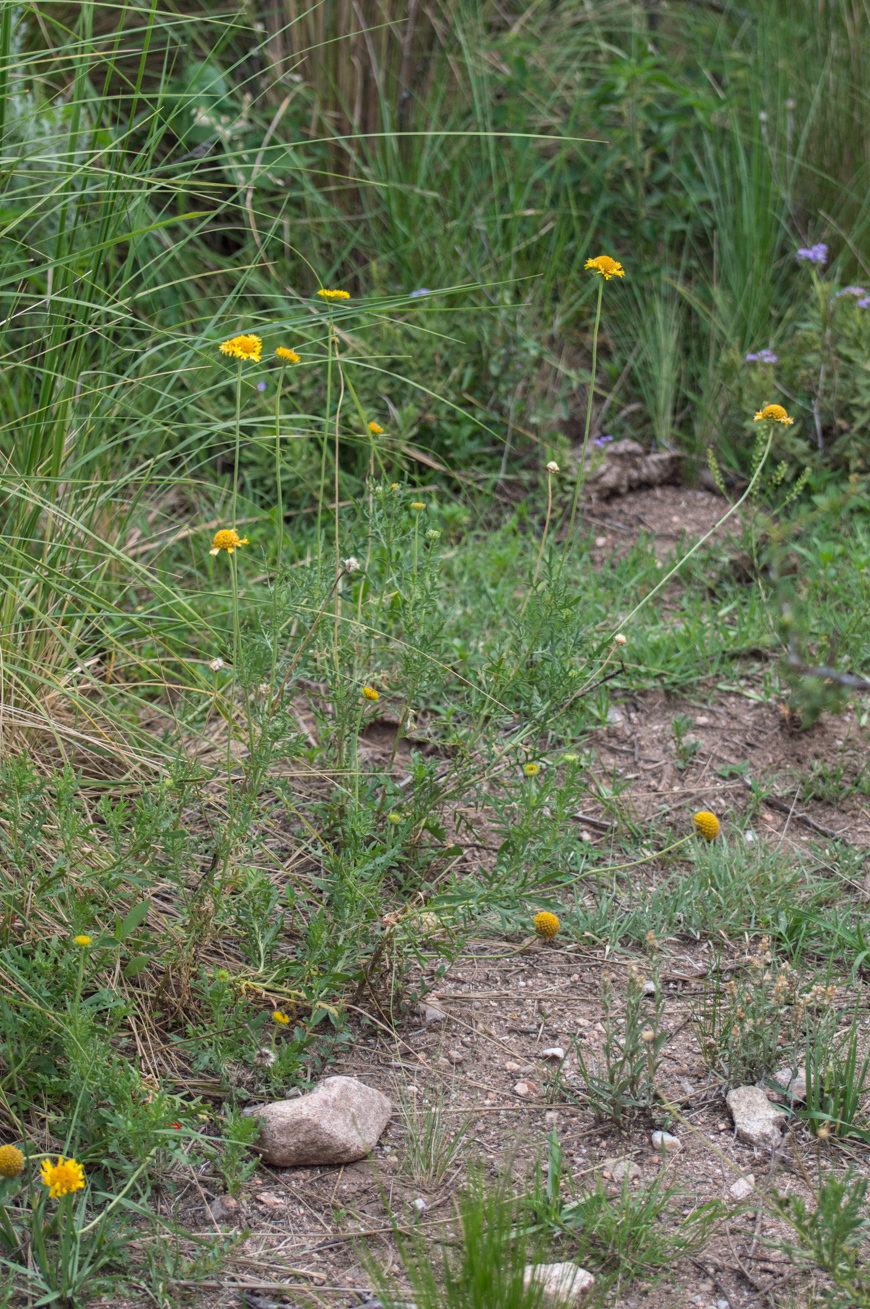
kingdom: Plantae
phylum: Tracheophyta
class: Magnoliopsida
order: Asterales
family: Asteraceae
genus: Gaillardia
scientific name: Gaillardia megapotamica
